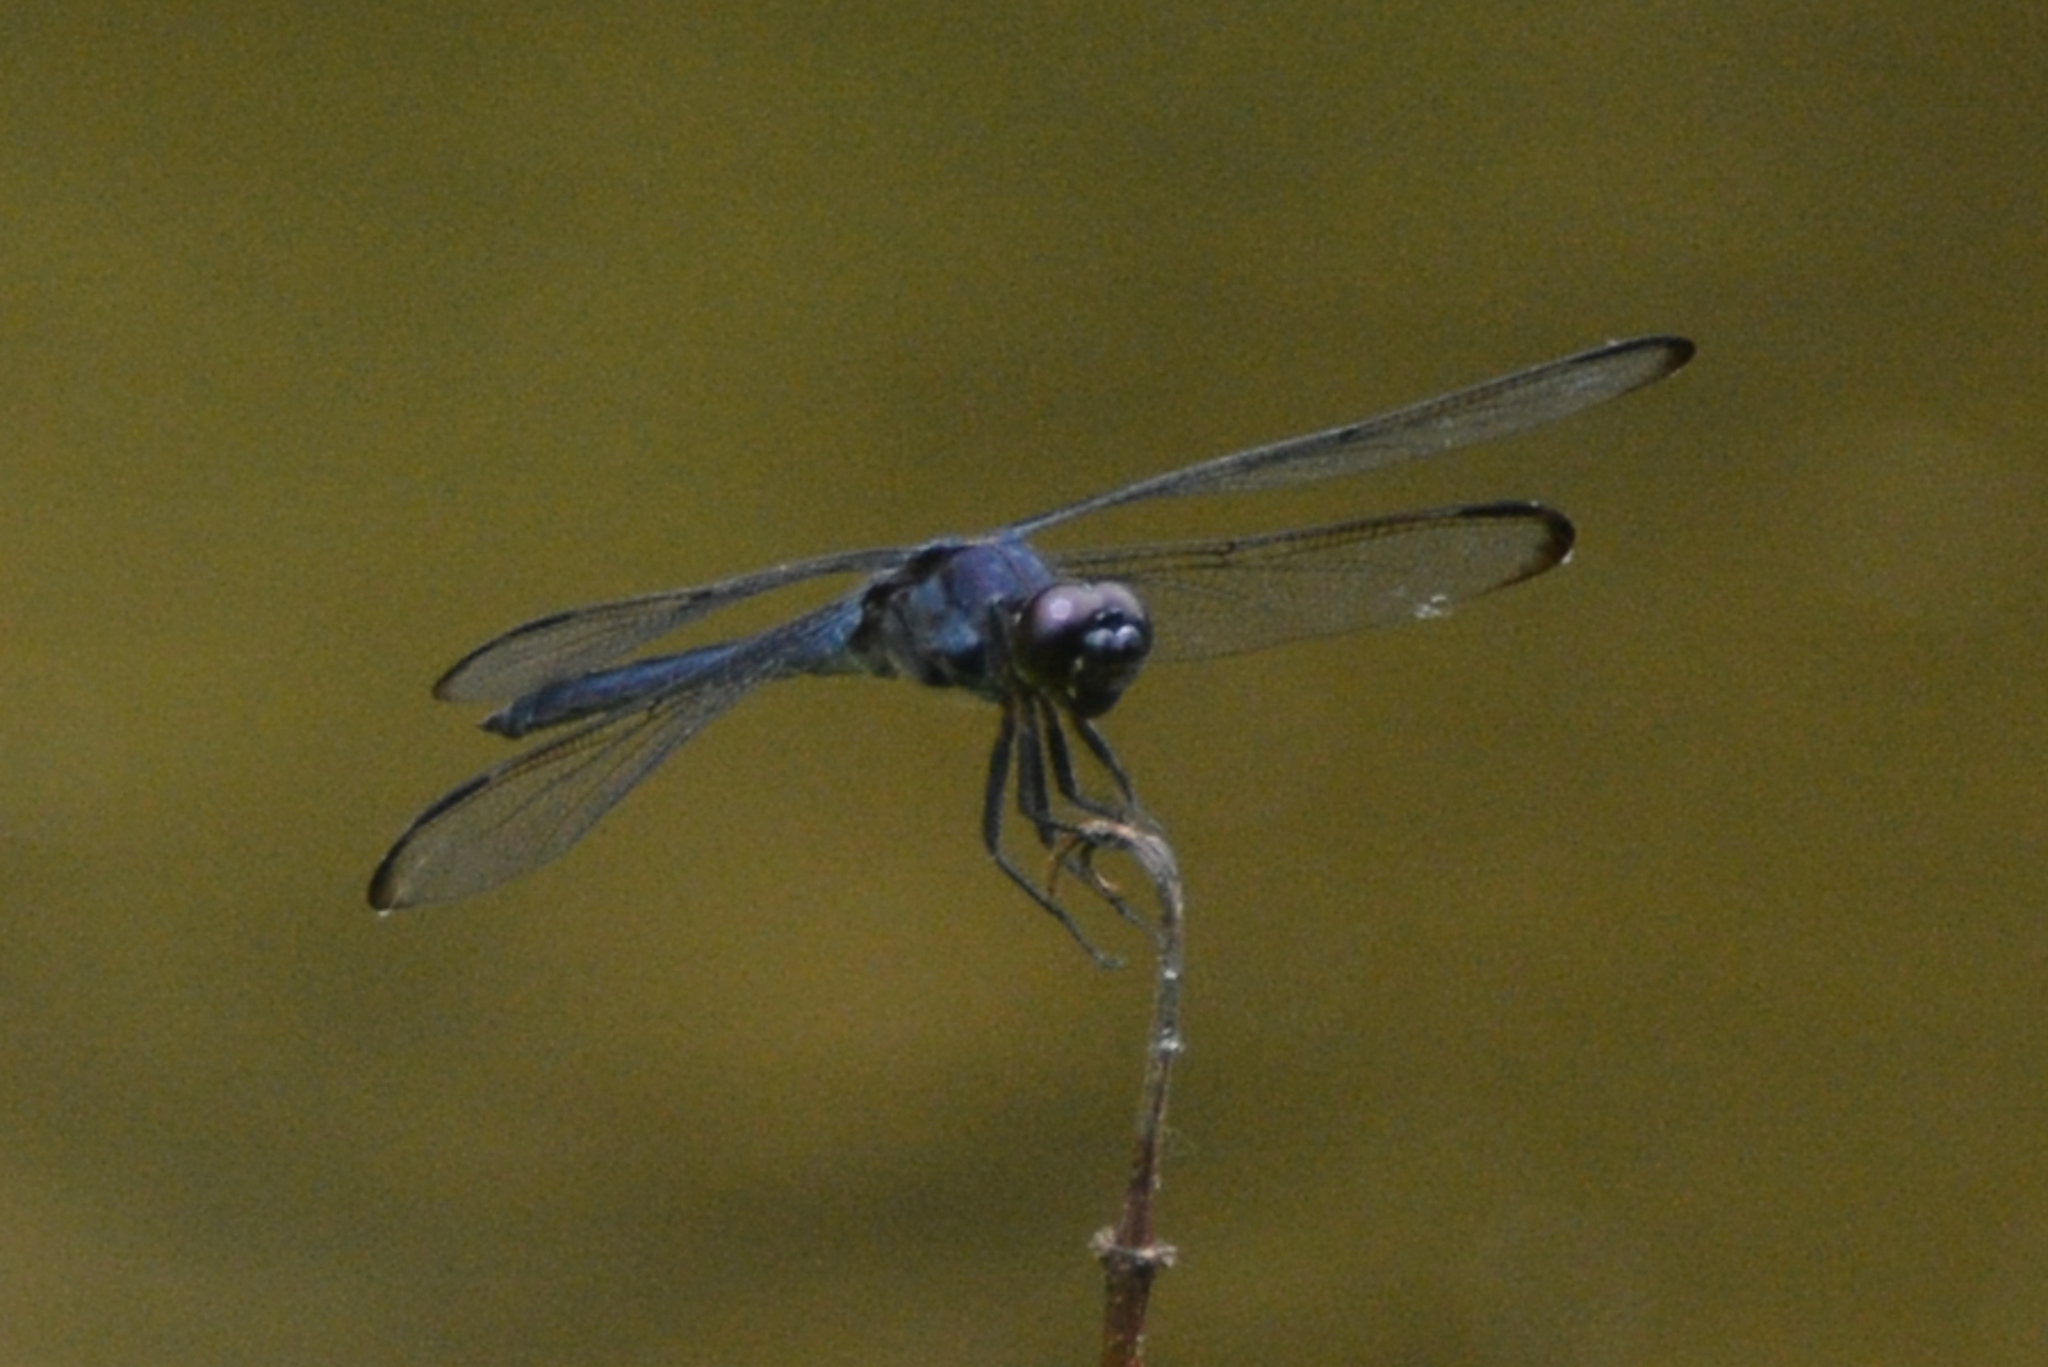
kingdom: Animalia
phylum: Arthropoda
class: Insecta
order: Odonata
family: Libellulidae
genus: Libellula
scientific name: Libellula incesta
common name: Slaty skimmer
